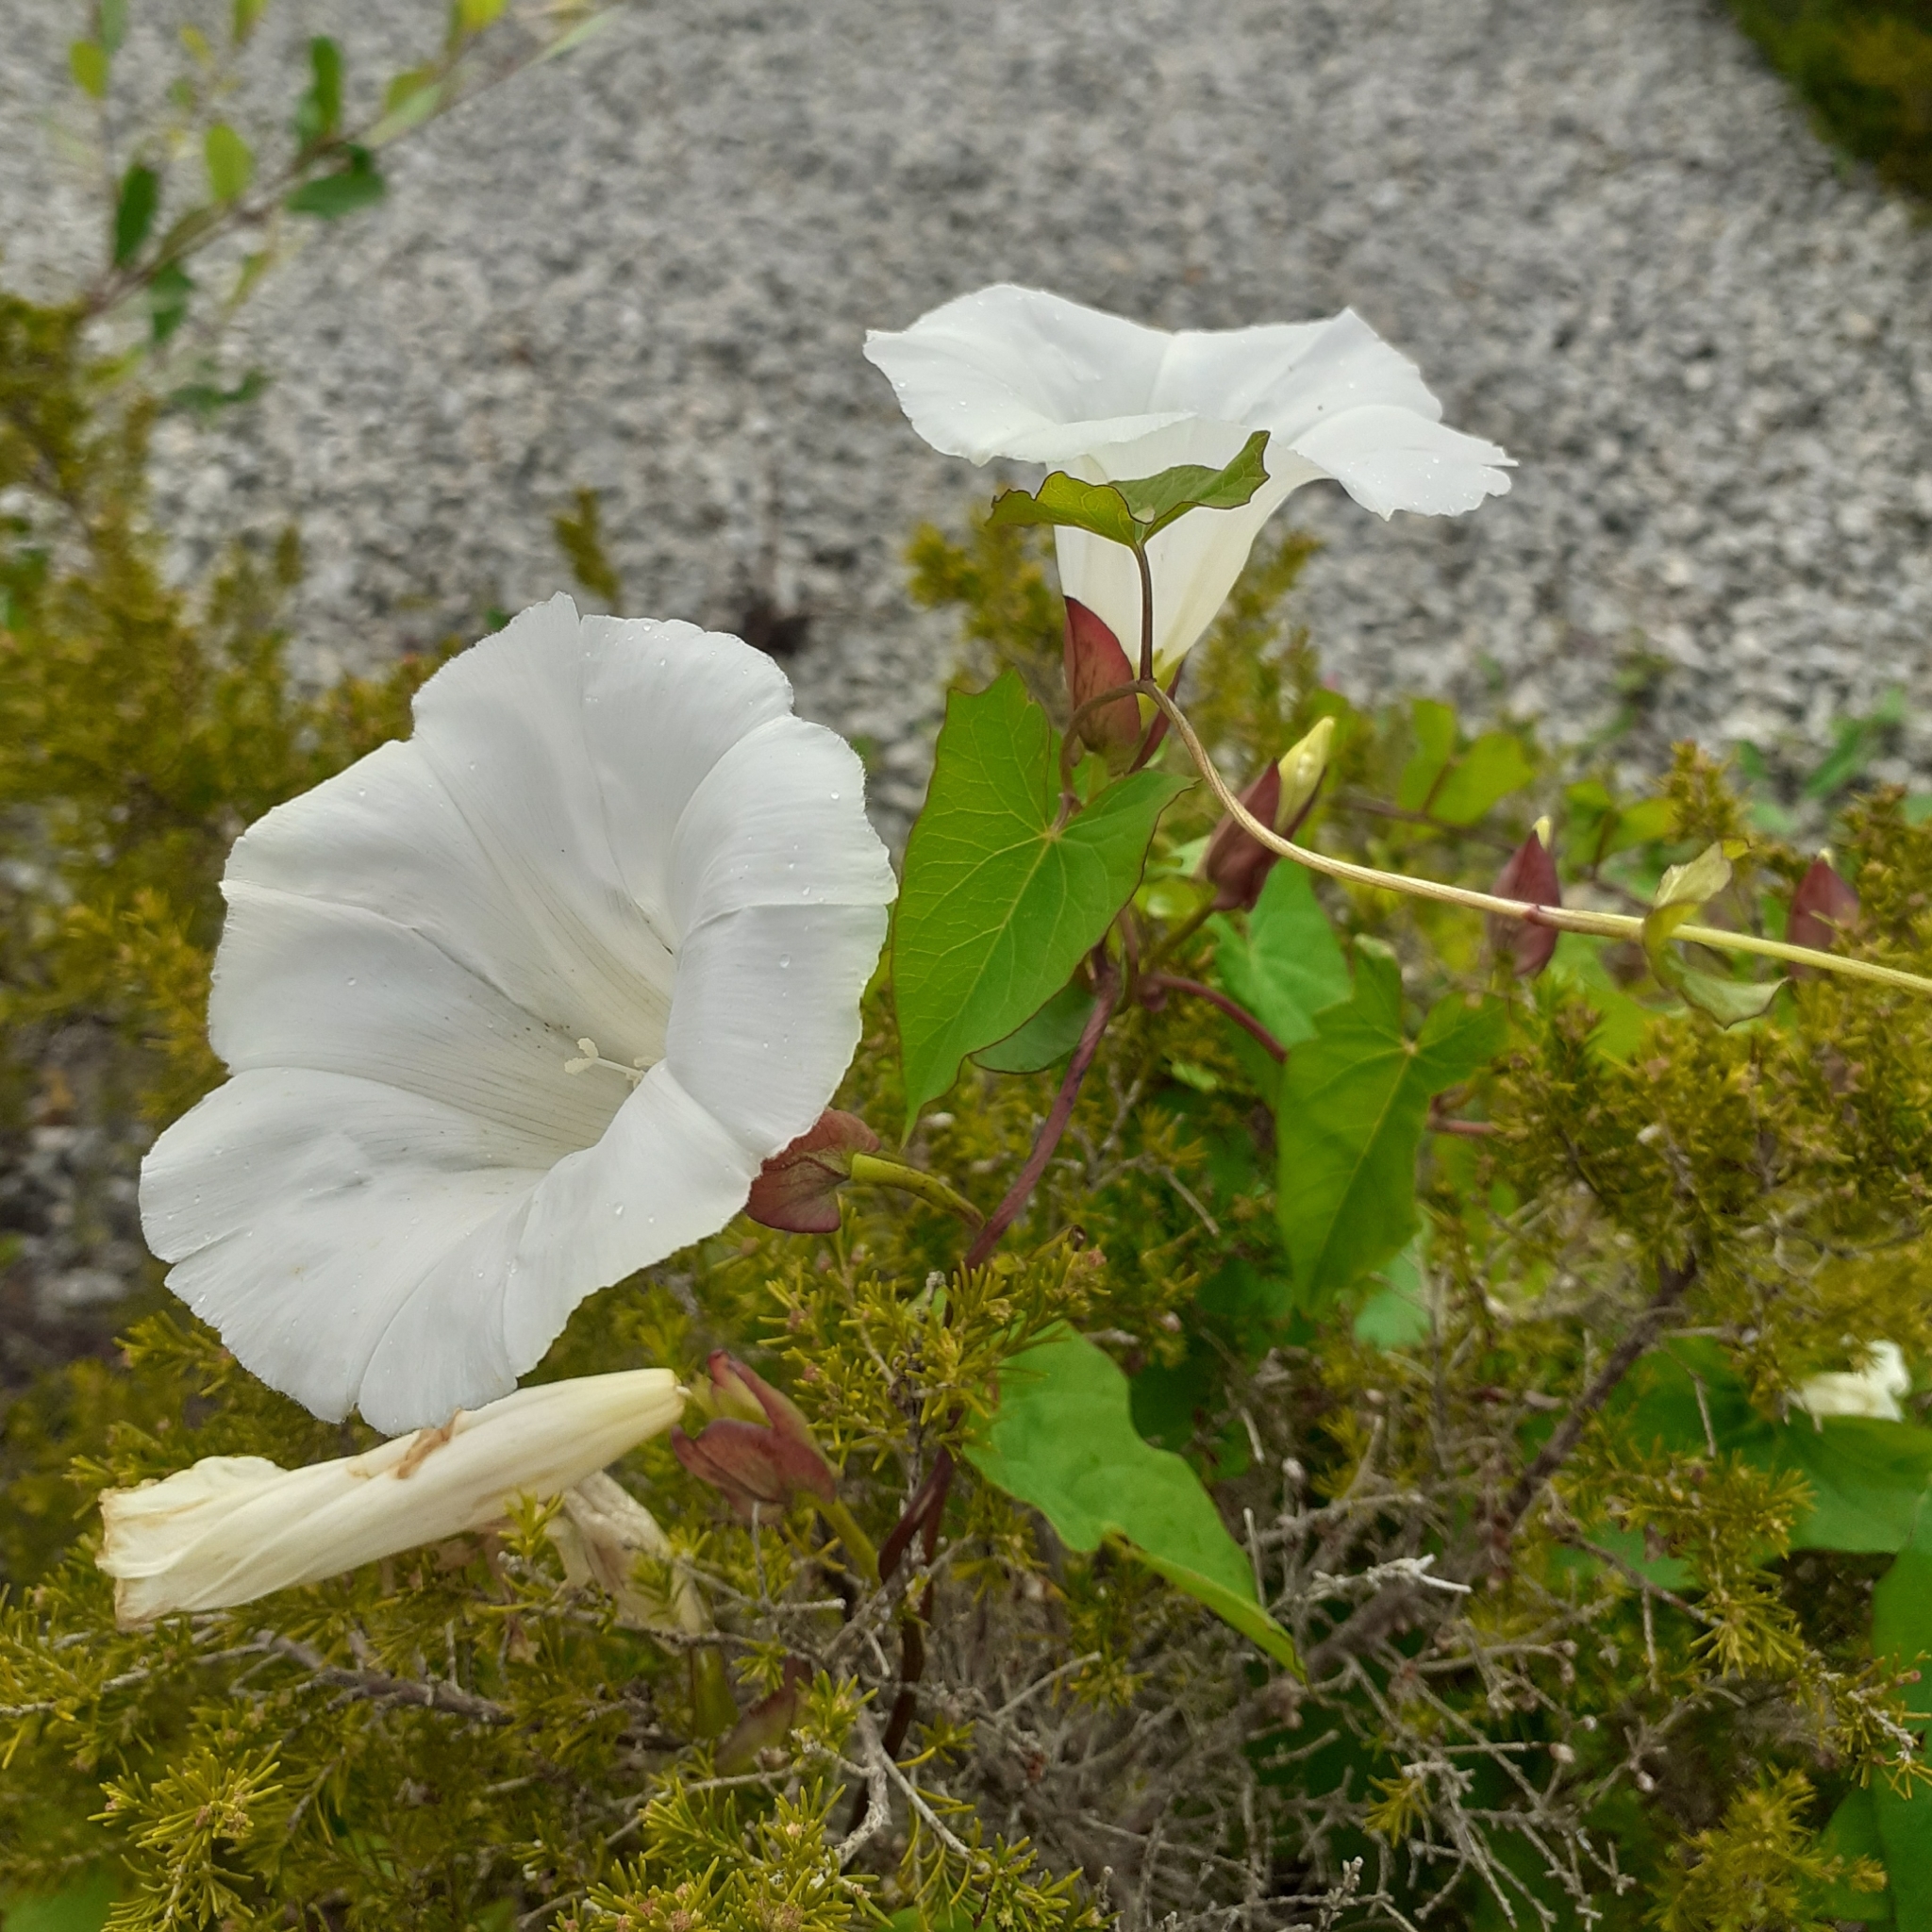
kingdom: Plantae
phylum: Tracheophyta
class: Magnoliopsida
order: Solanales
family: Convolvulaceae
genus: Calystegia
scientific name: Calystegia sepium
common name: Hedge bindweed
